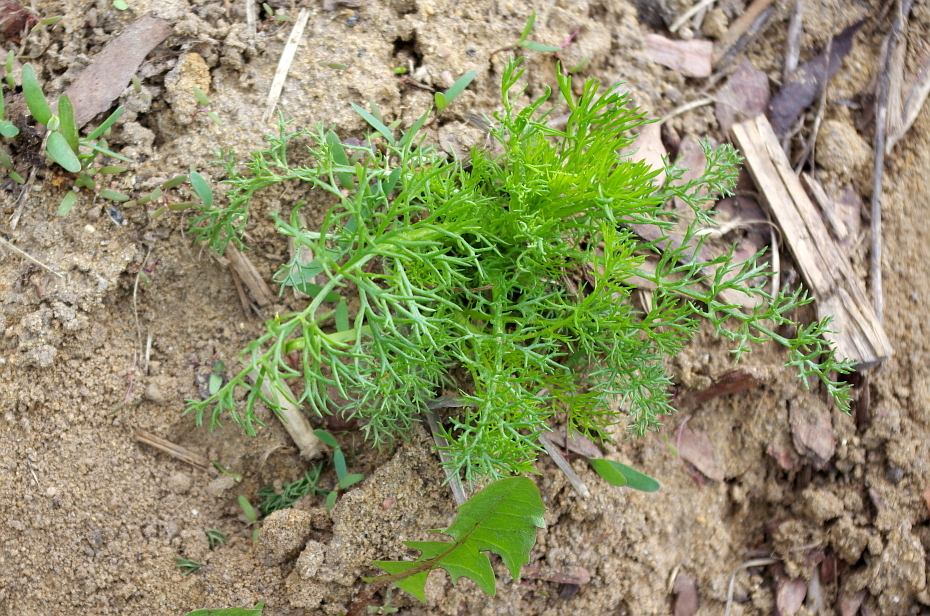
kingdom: Plantae
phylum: Tracheophyta
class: Magnoliopsida
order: Asterales
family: Asteraceae
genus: Tripleurospermum
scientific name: Tripleurospermum inodorum
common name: Scentless mayweed
